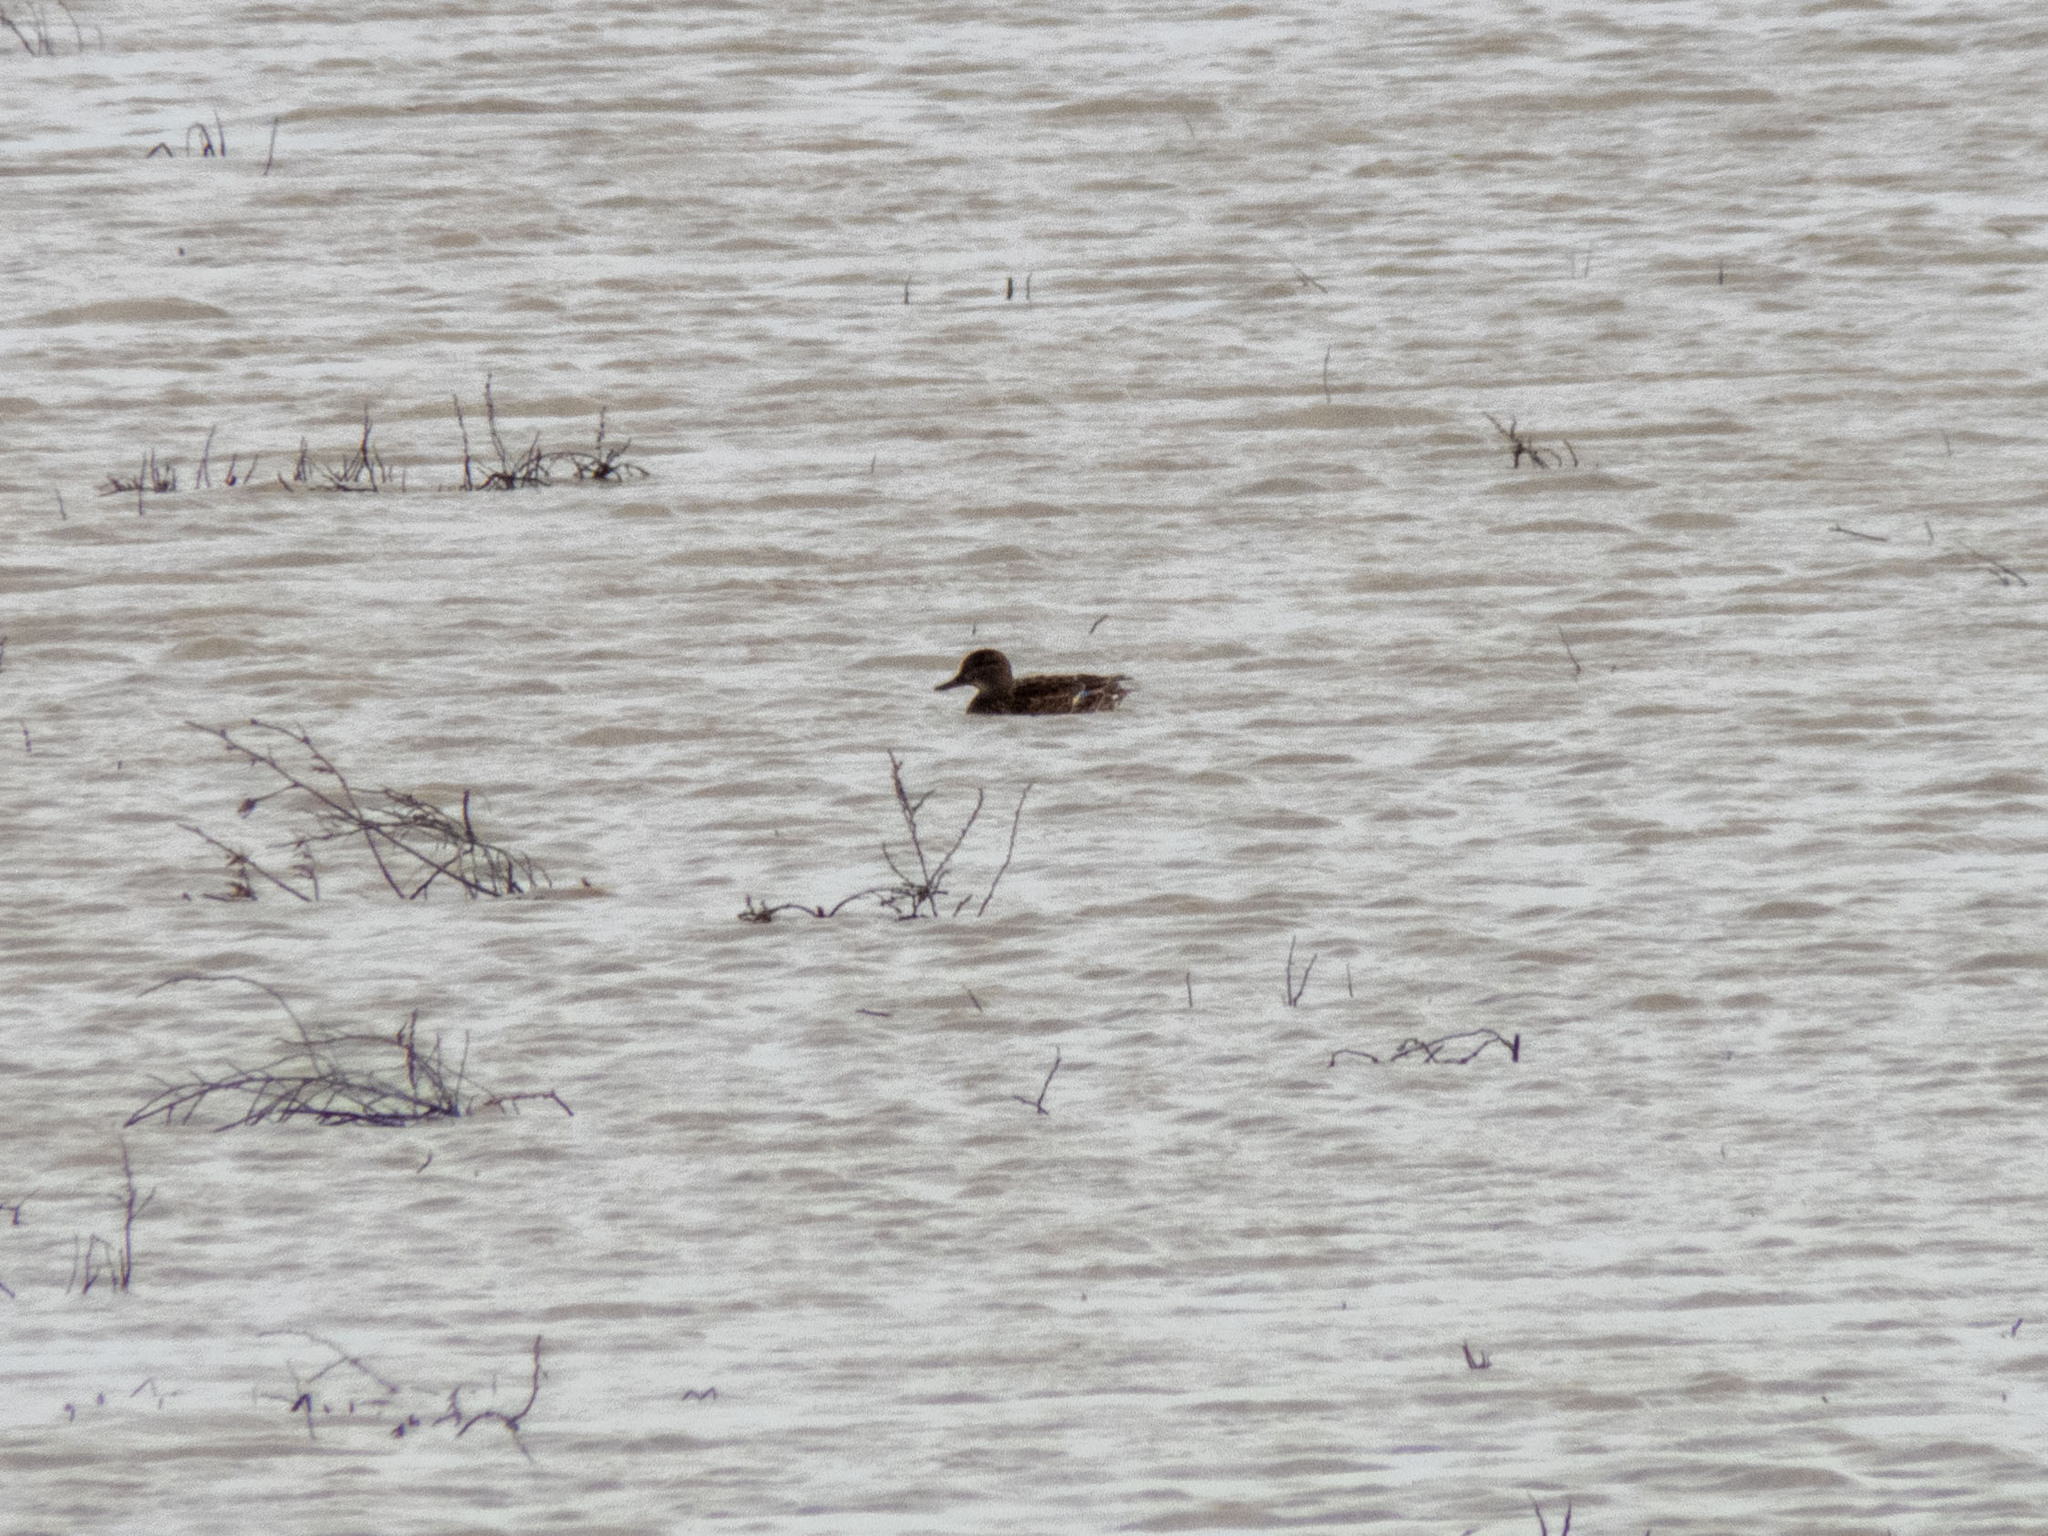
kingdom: Animalia
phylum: Chordata
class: Aves
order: Anseriformes
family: Anatidae
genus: Anas
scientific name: Anas crecca
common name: Eurasian teal
